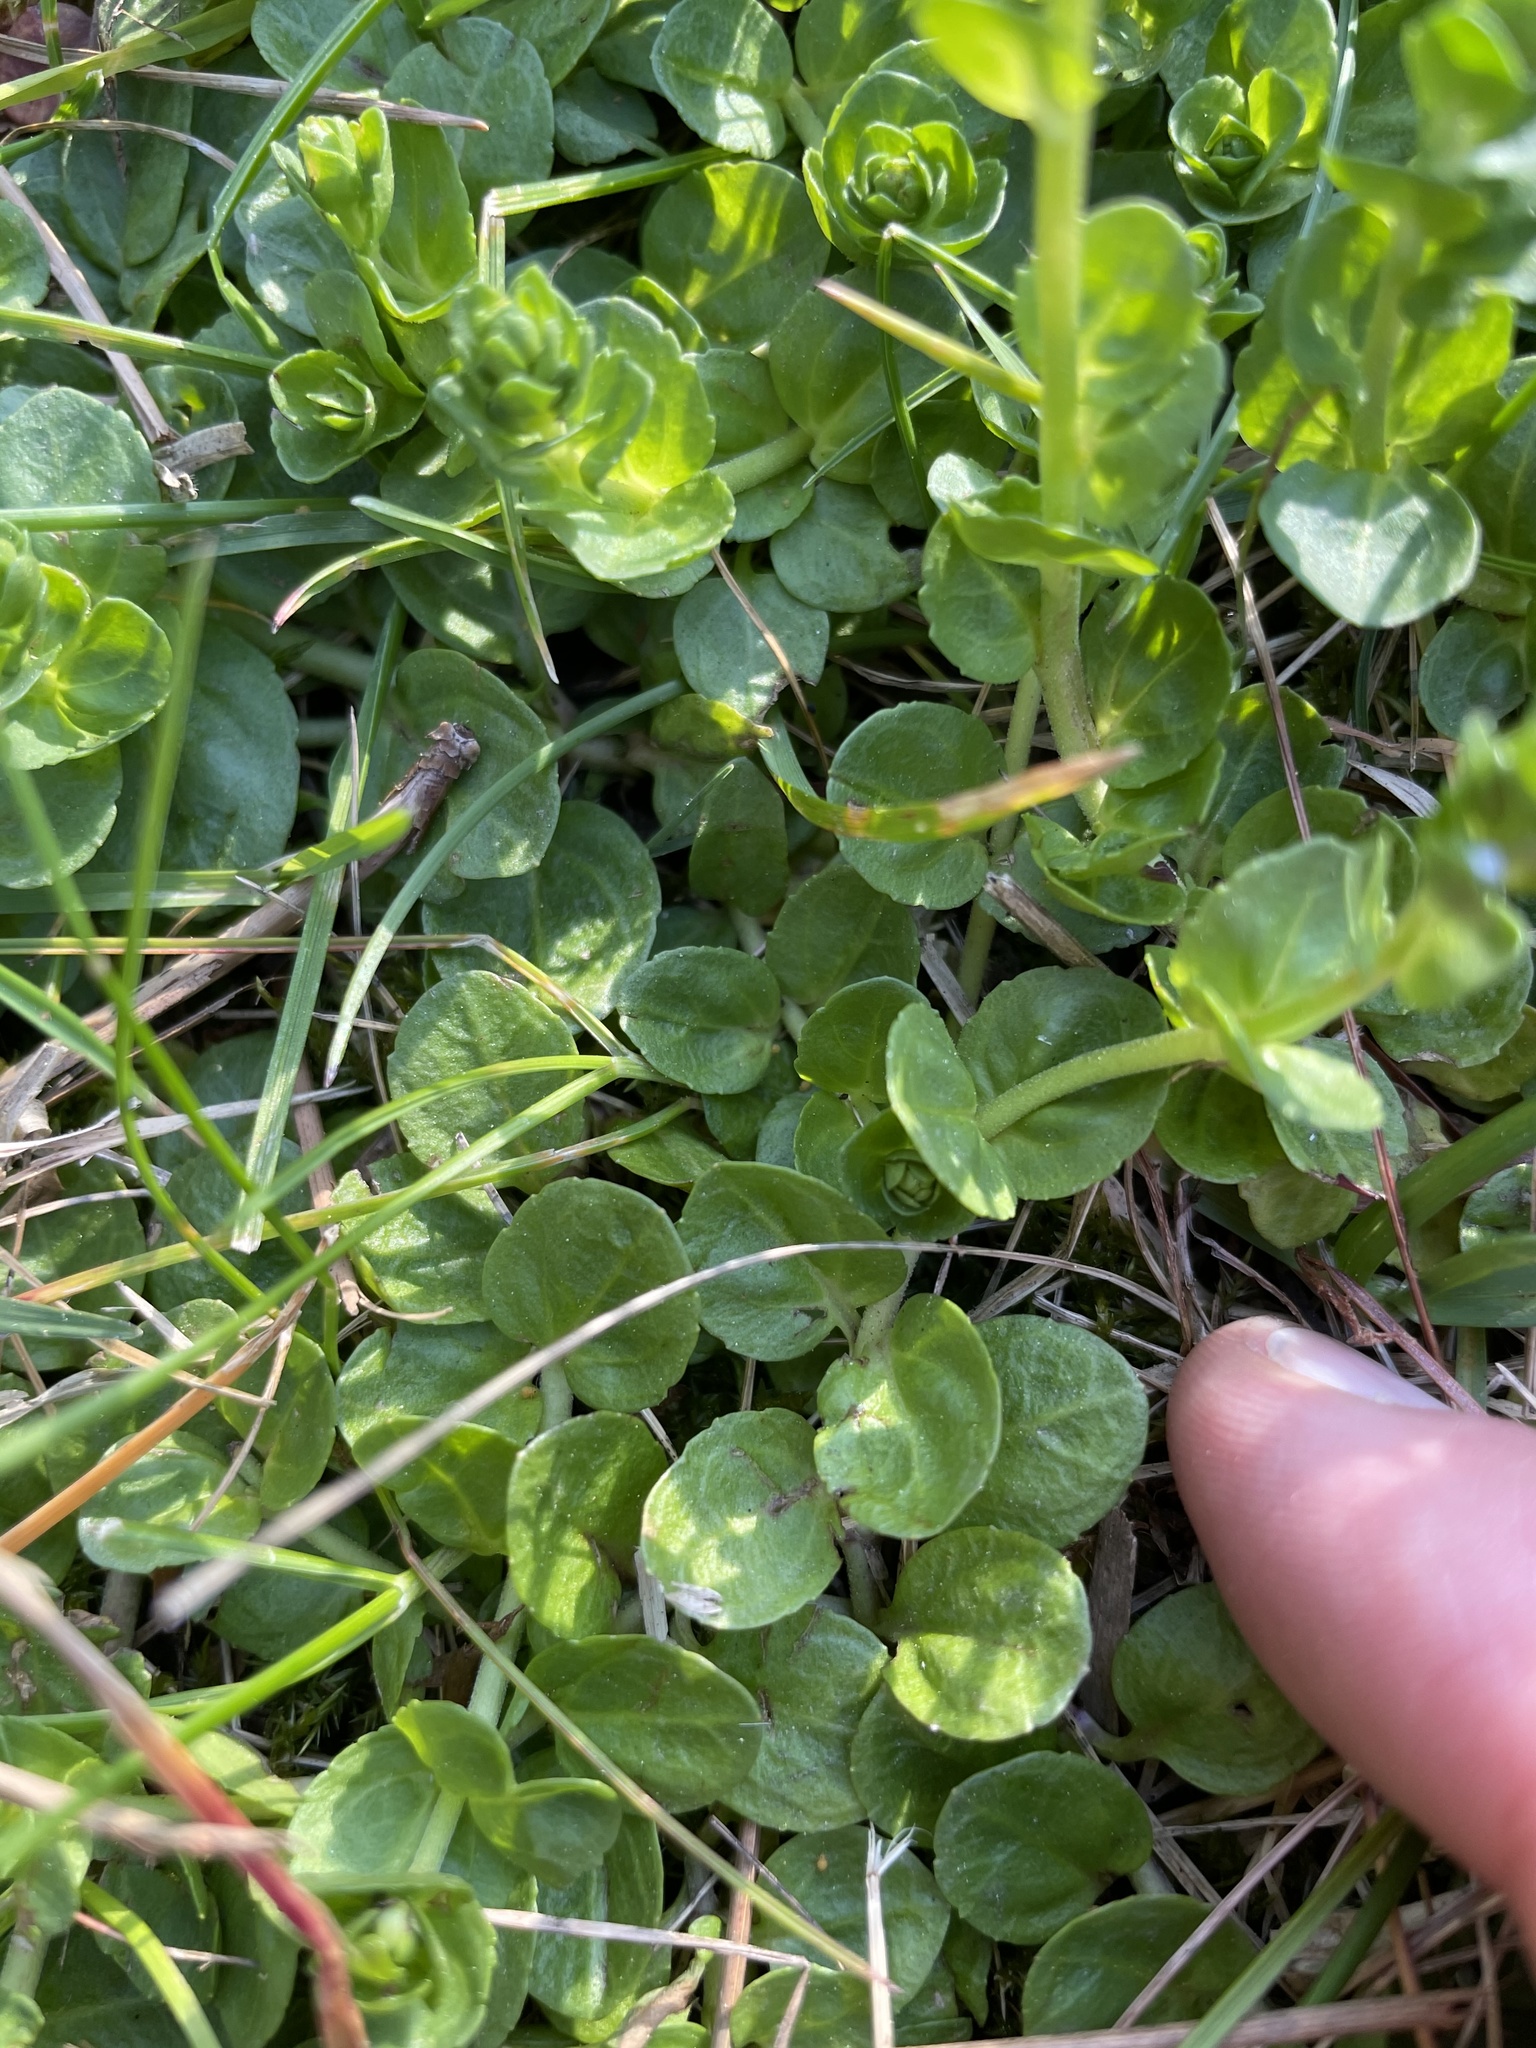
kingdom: Plantae
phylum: Tracheophyta
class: Magnoliopsida
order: Lamiales
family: Plantaginaceae
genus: Veronica
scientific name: Veronica serpyllifolia
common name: Thyme-leaved speedwell
